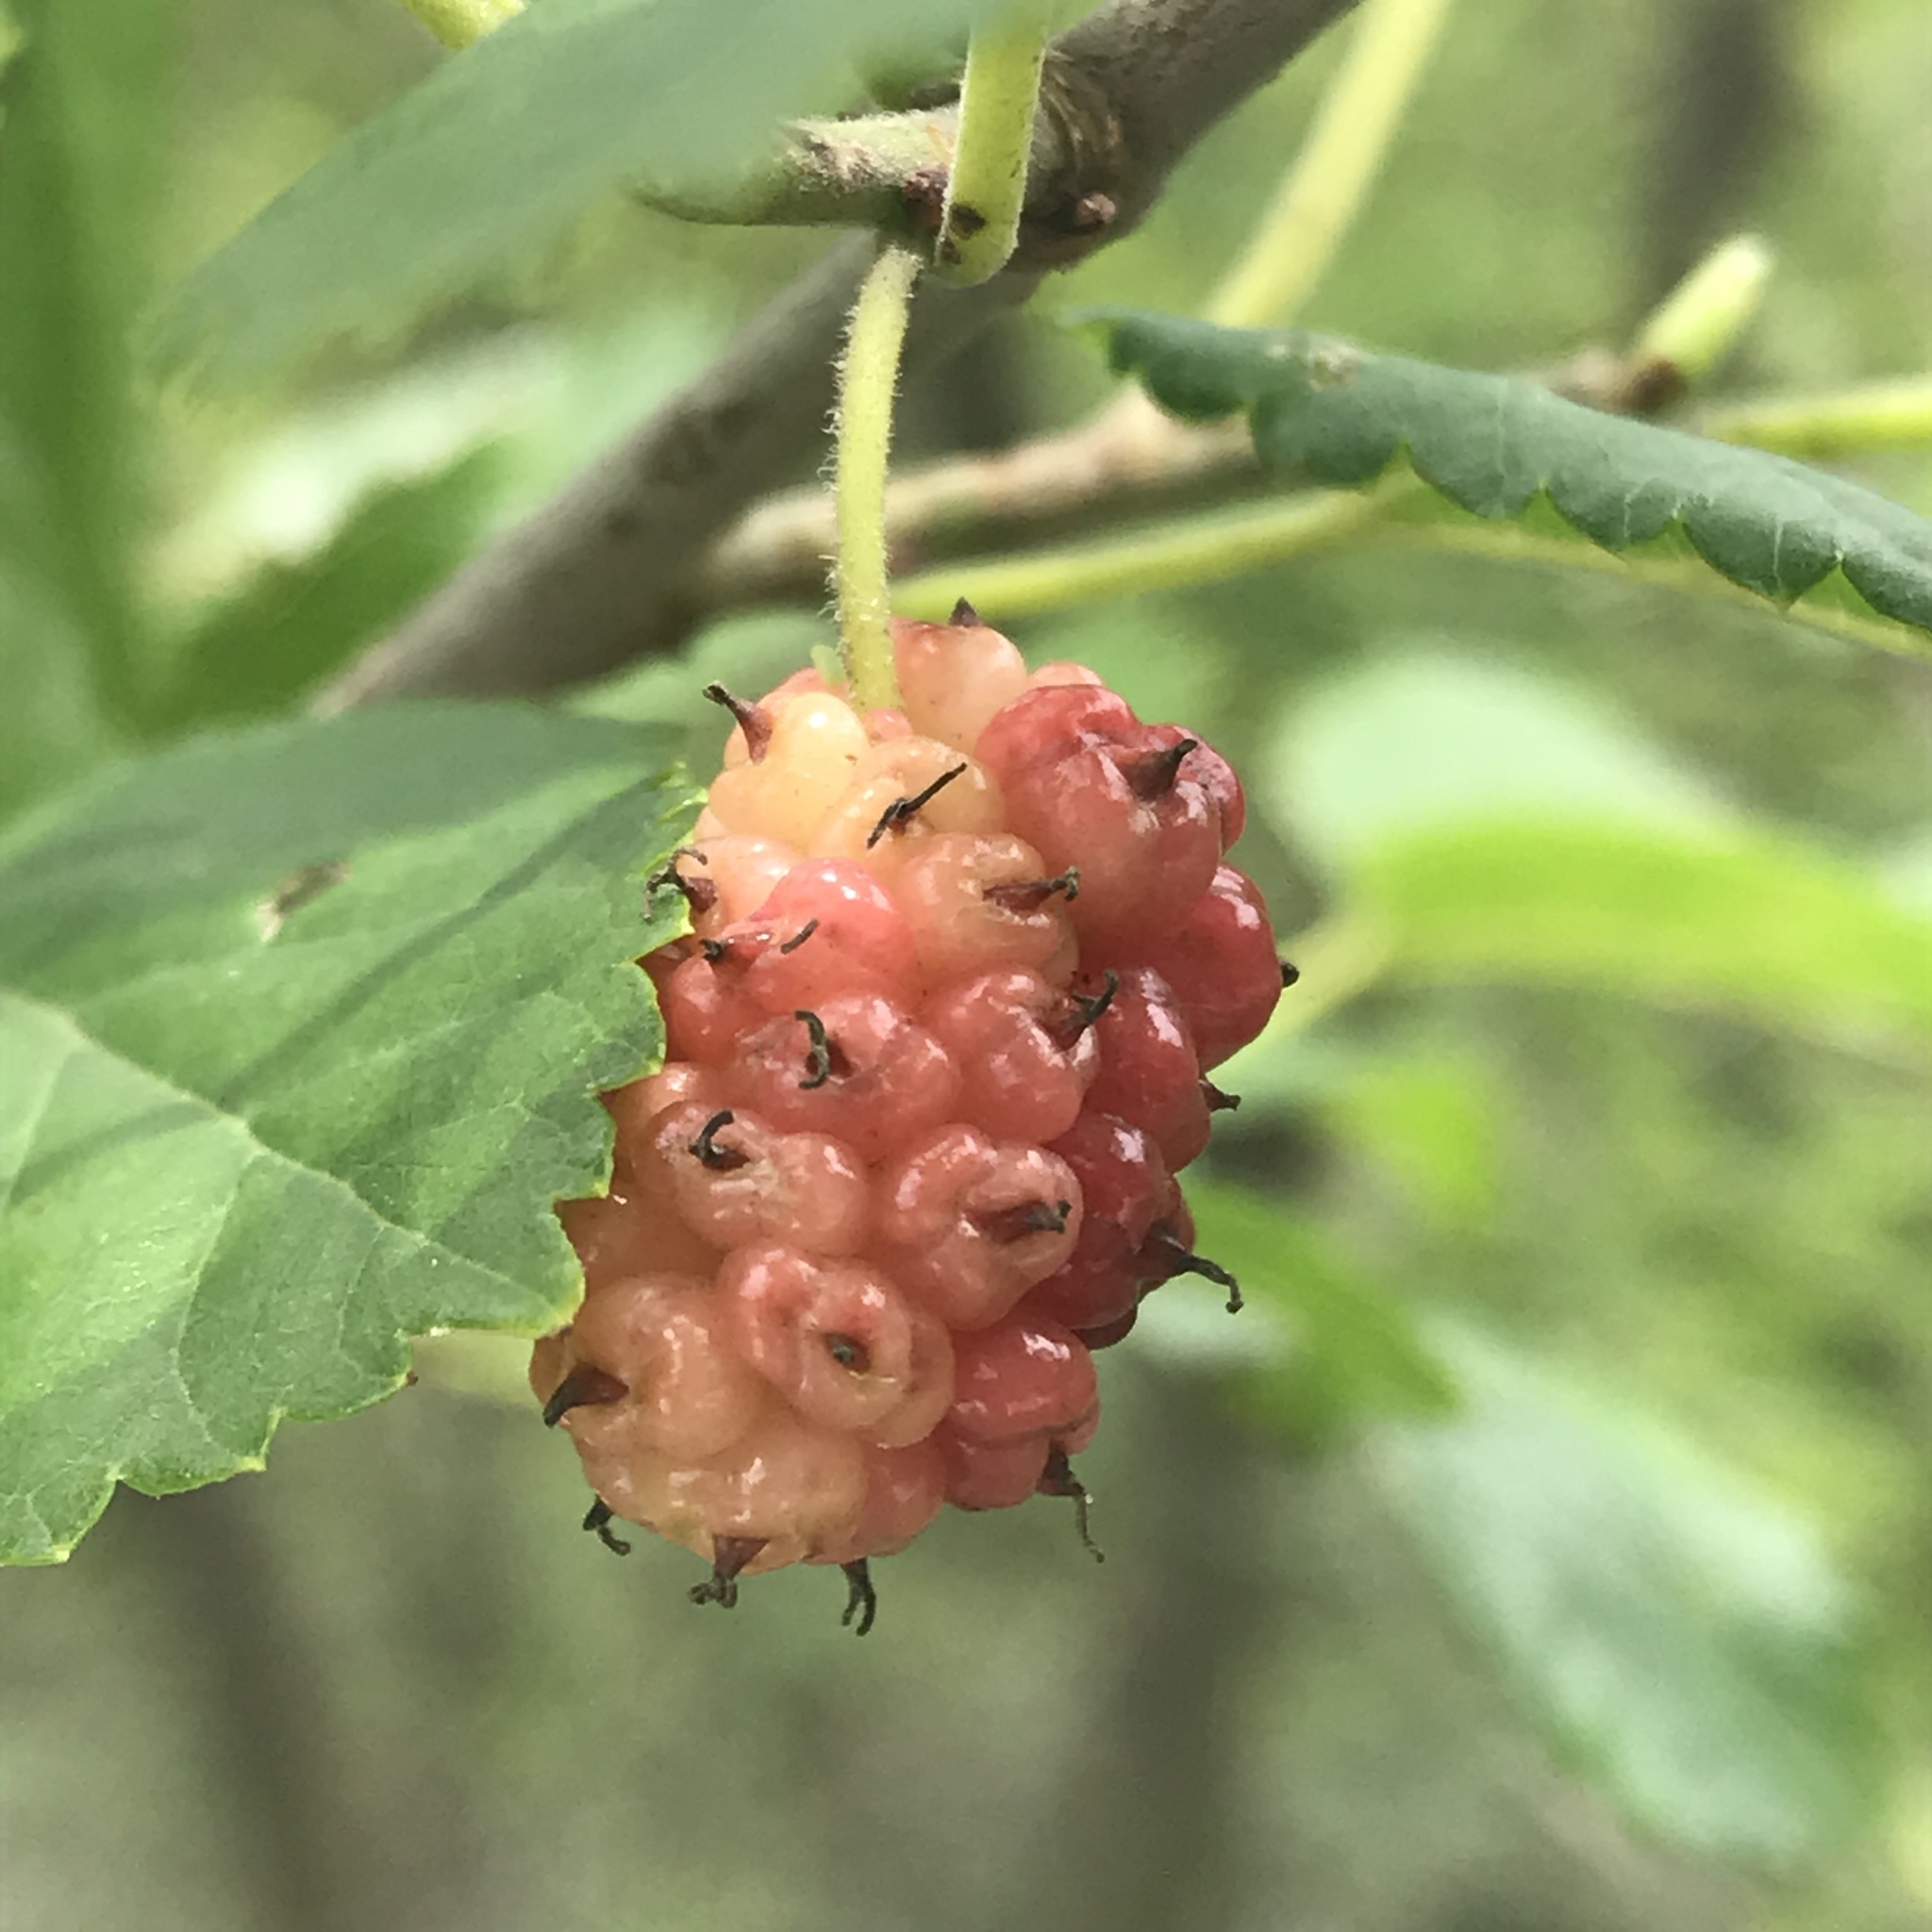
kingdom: Plantae
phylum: Tracheophyta
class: Magnoliopsida
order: Rosales
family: Moraceae
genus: Morus
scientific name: Morus rubra
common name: Red mulberry
